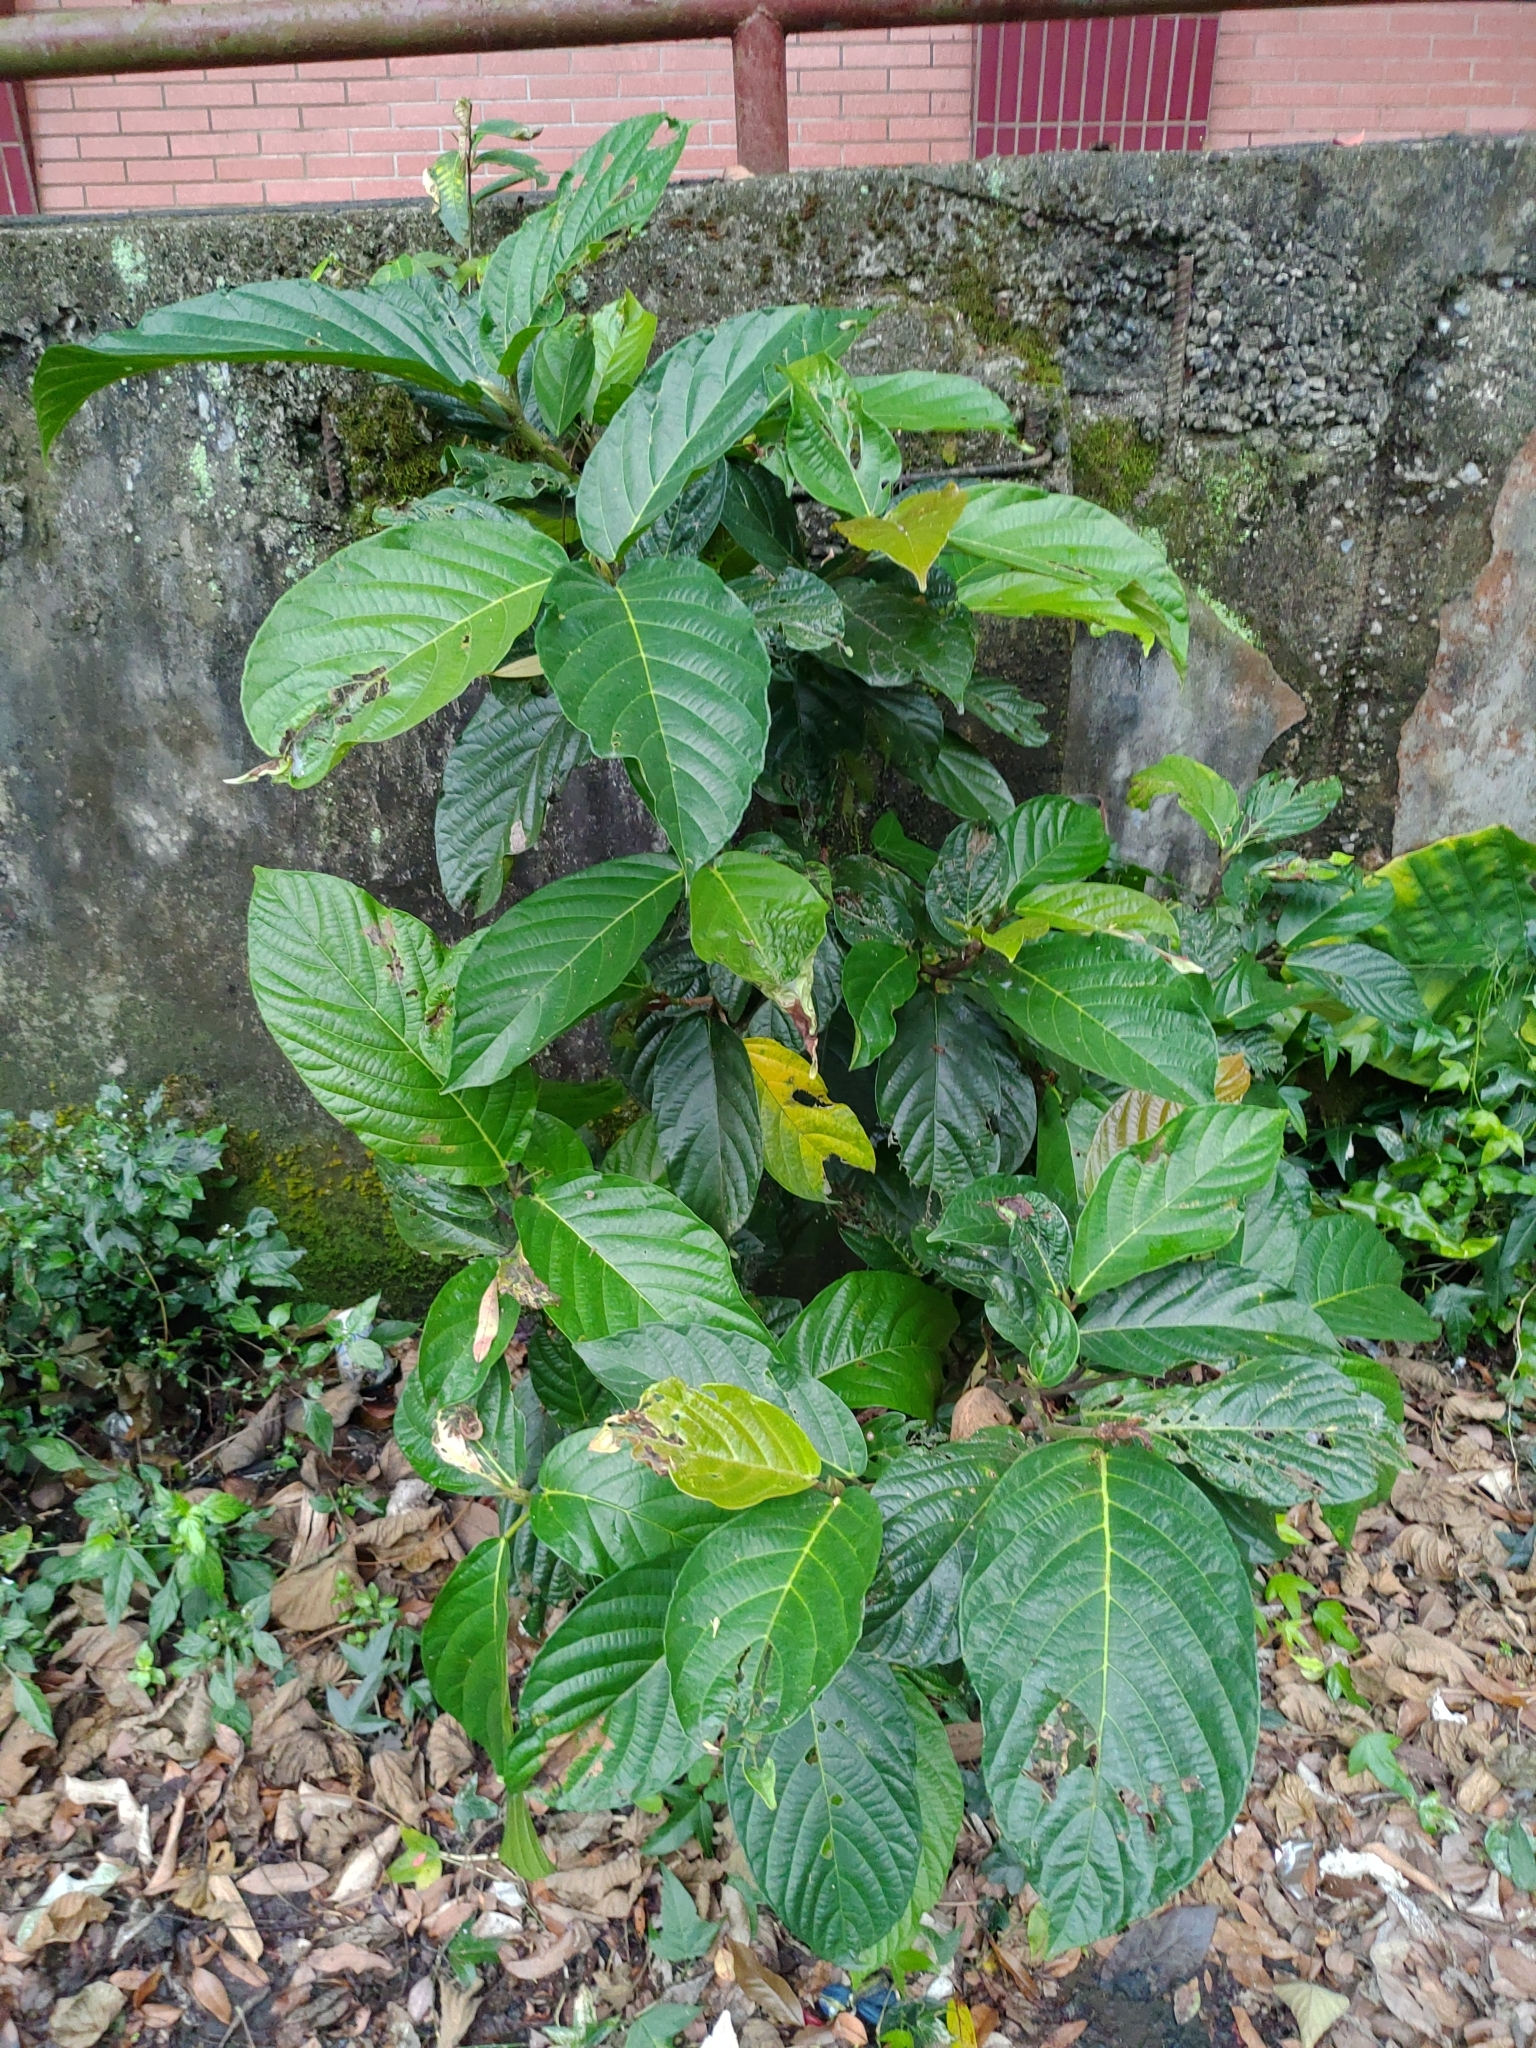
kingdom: Plantae
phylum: Tracheophyta
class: Magnoliopsida
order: Rosales
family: Moraceae
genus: Ficus
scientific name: Ficus benguetensis
